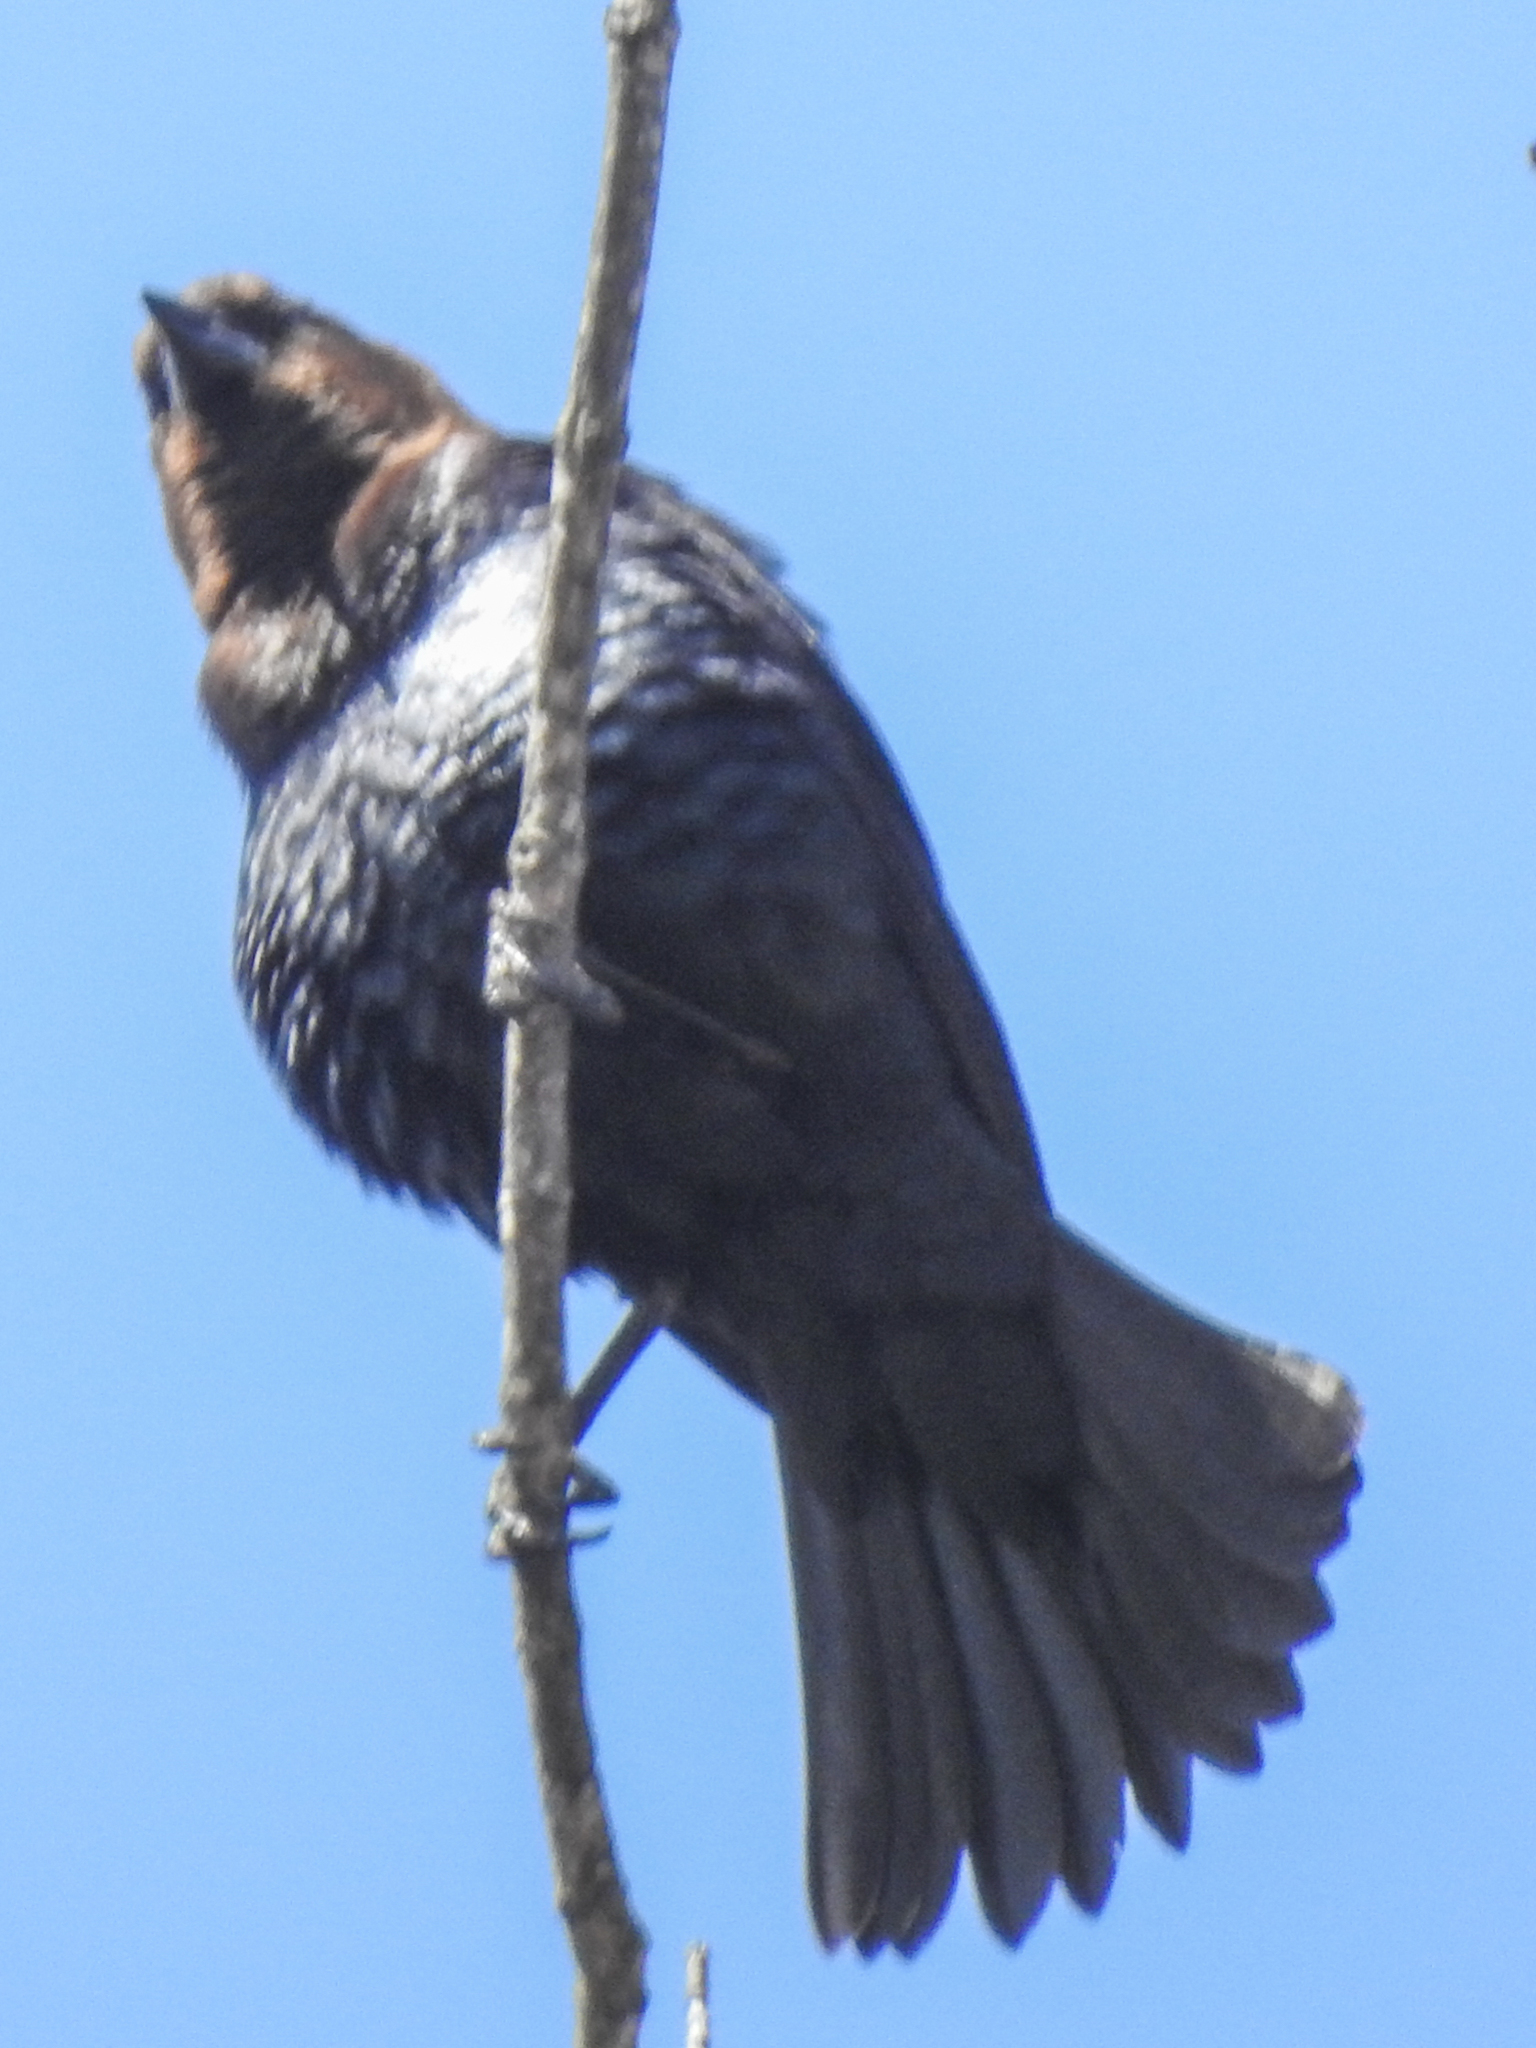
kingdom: Animalia
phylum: Chordata
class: Aves
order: Passeriformes
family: Icteridae
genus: Molothrus
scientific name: Molothrus ater
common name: Brown-headed cowbird
